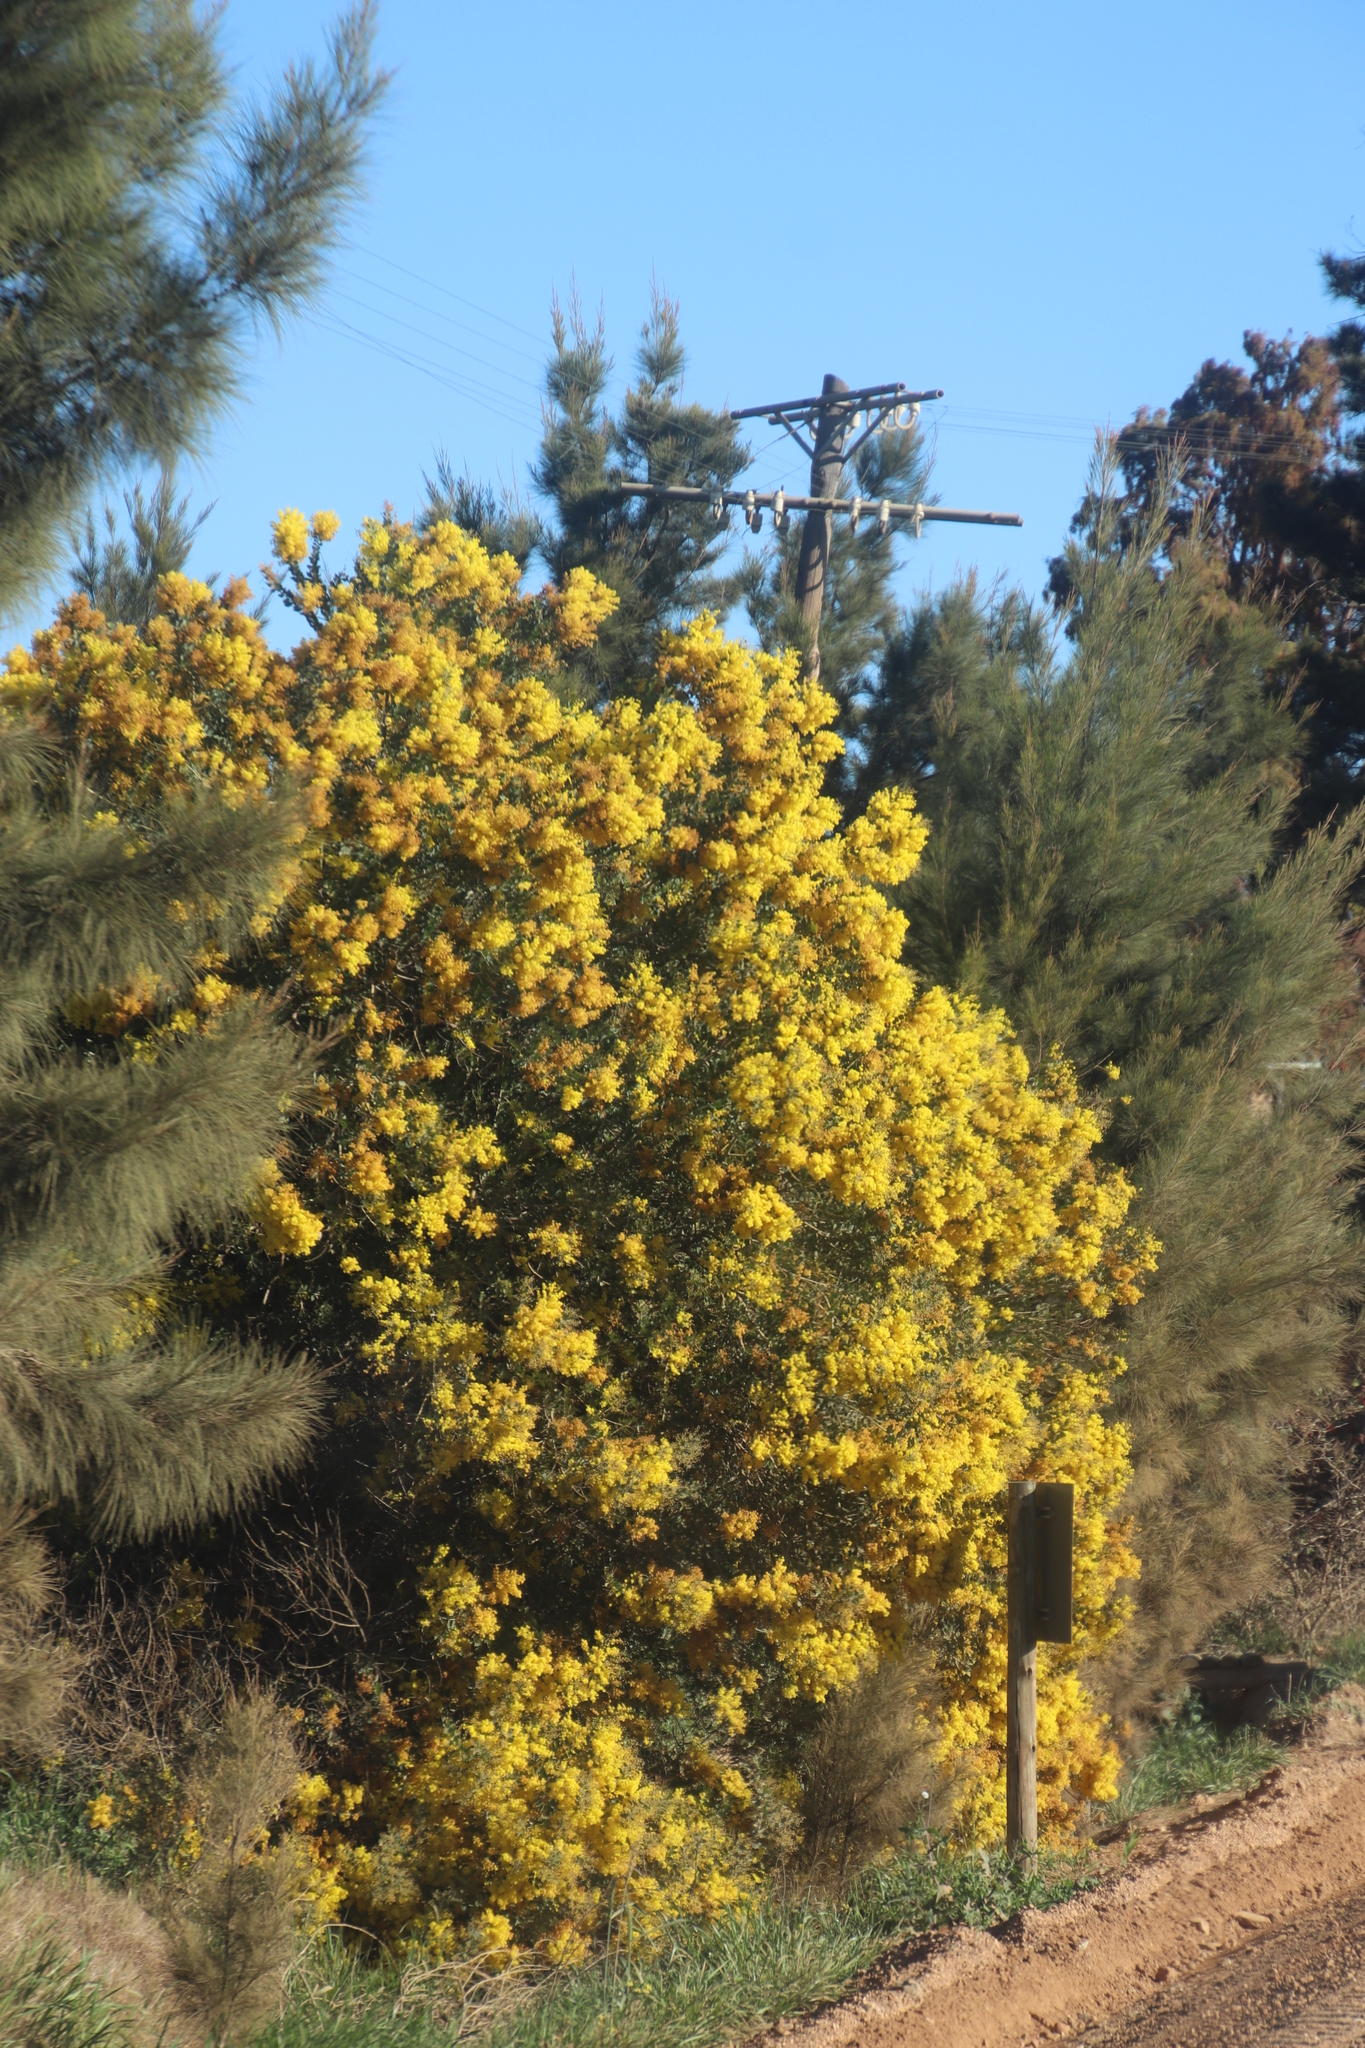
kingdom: Plantae
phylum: Tracheophyta
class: Magnoliopsida
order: Fabales
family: Fabaceae
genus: Acacia
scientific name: Acacia podalyriifolia
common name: Pearl wattle
